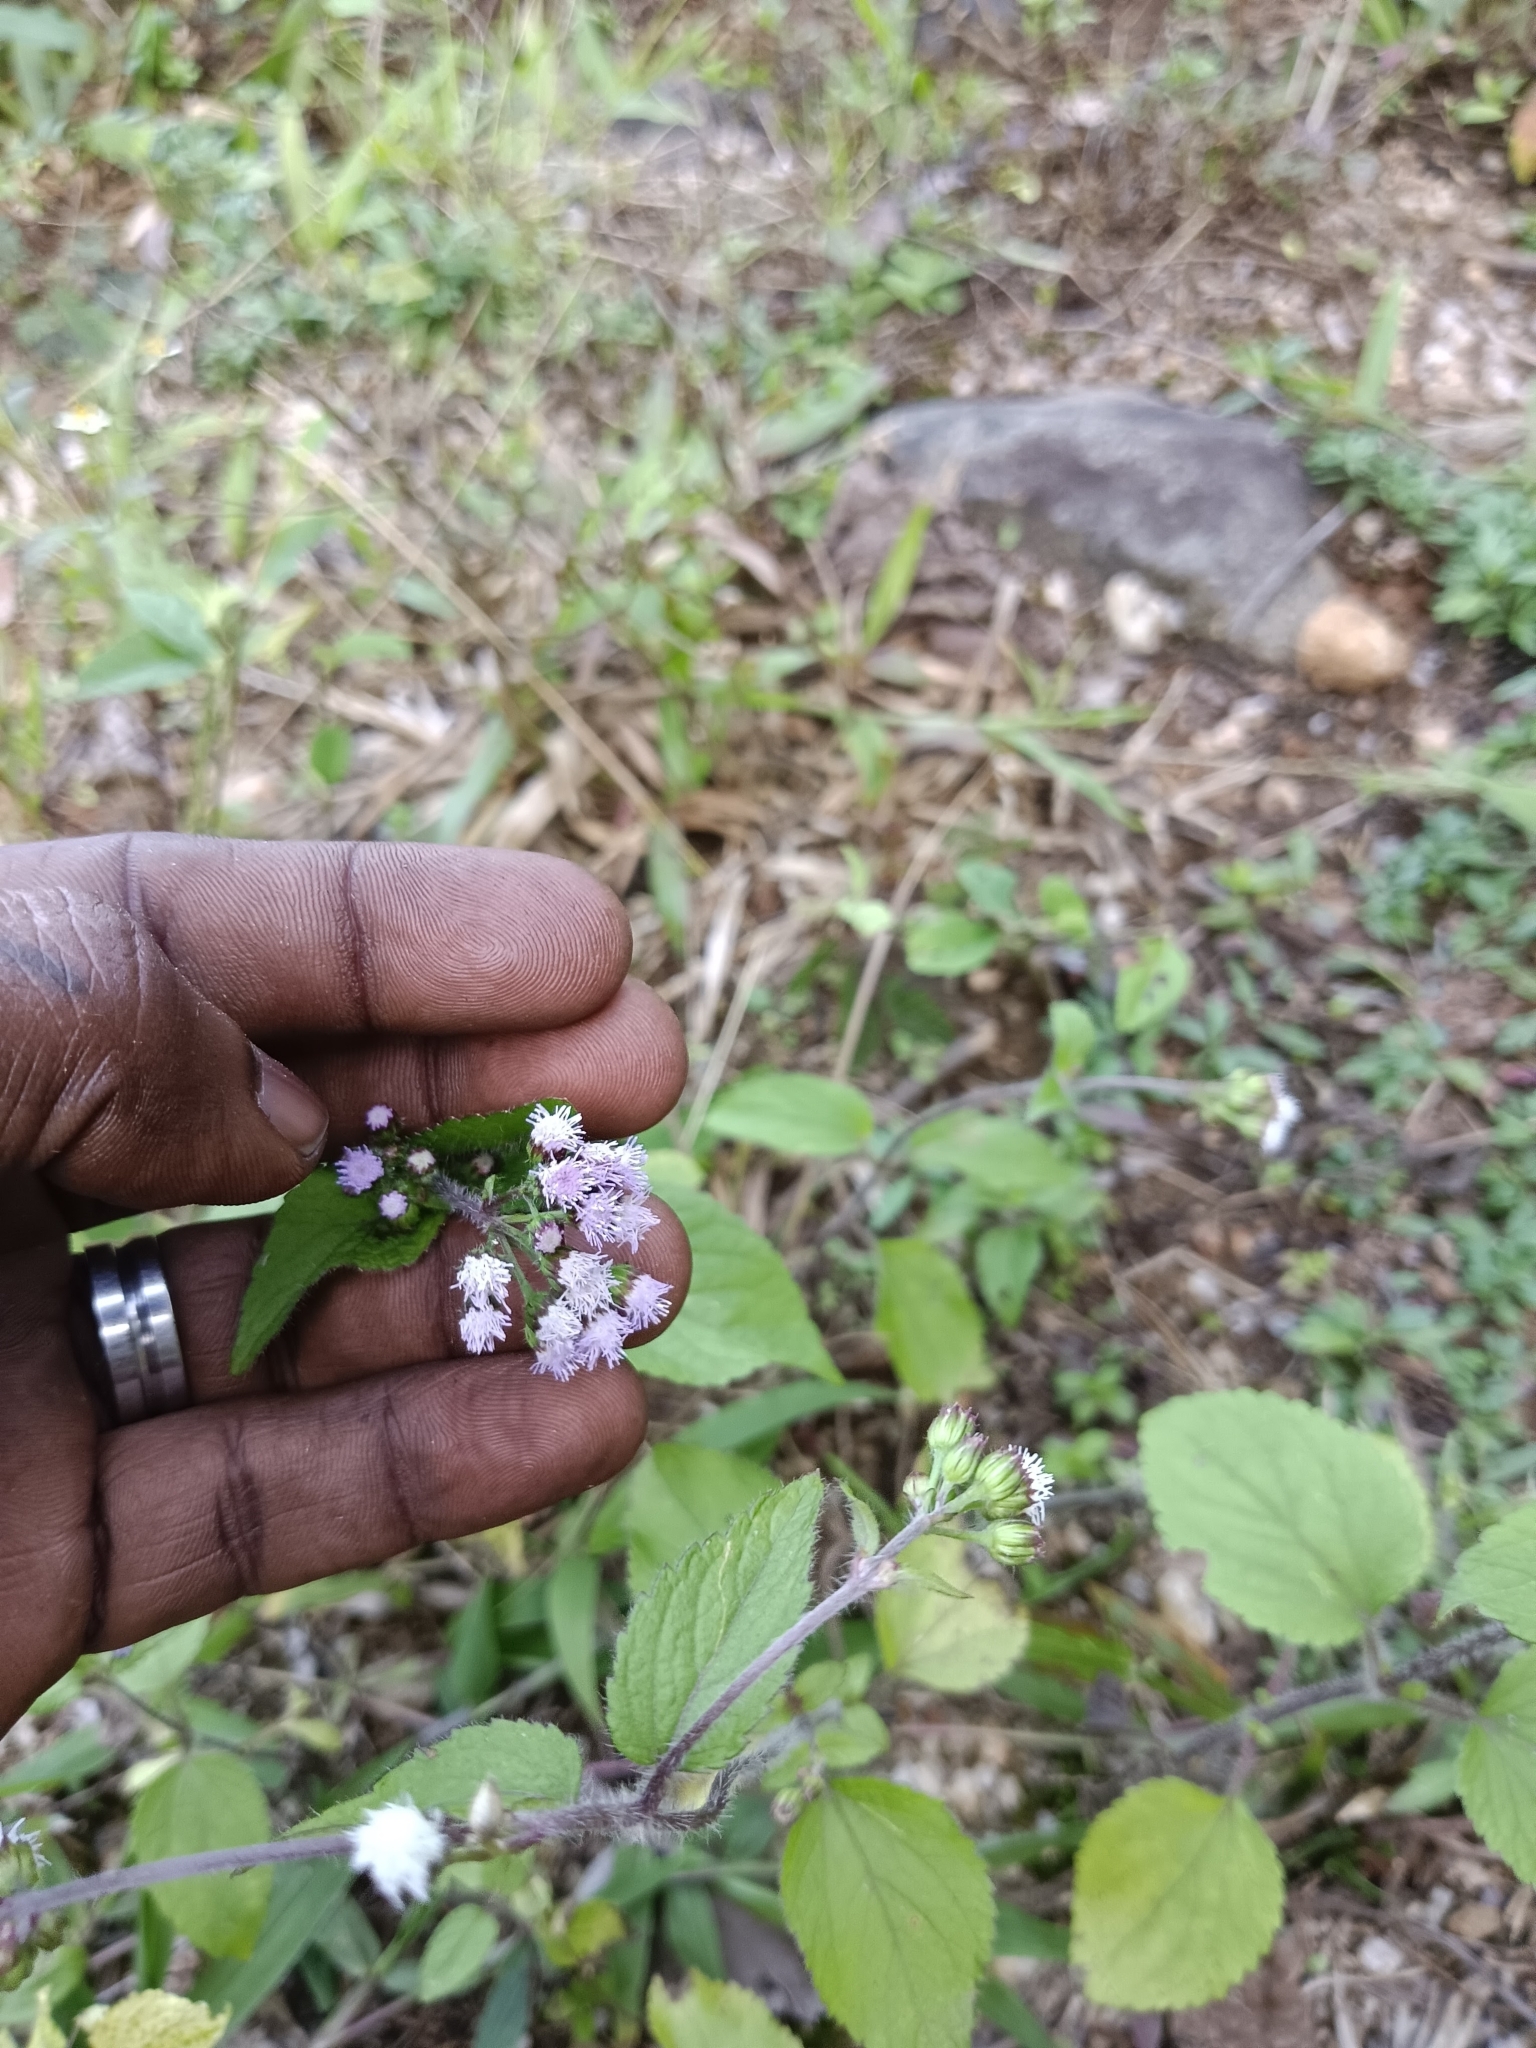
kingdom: Plantae
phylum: Tracheophyta
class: Magnoliopsida
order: Asterales
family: Asteraceae
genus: Ageratum
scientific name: Ageratum conyzoides
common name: Tropical whiteweed
